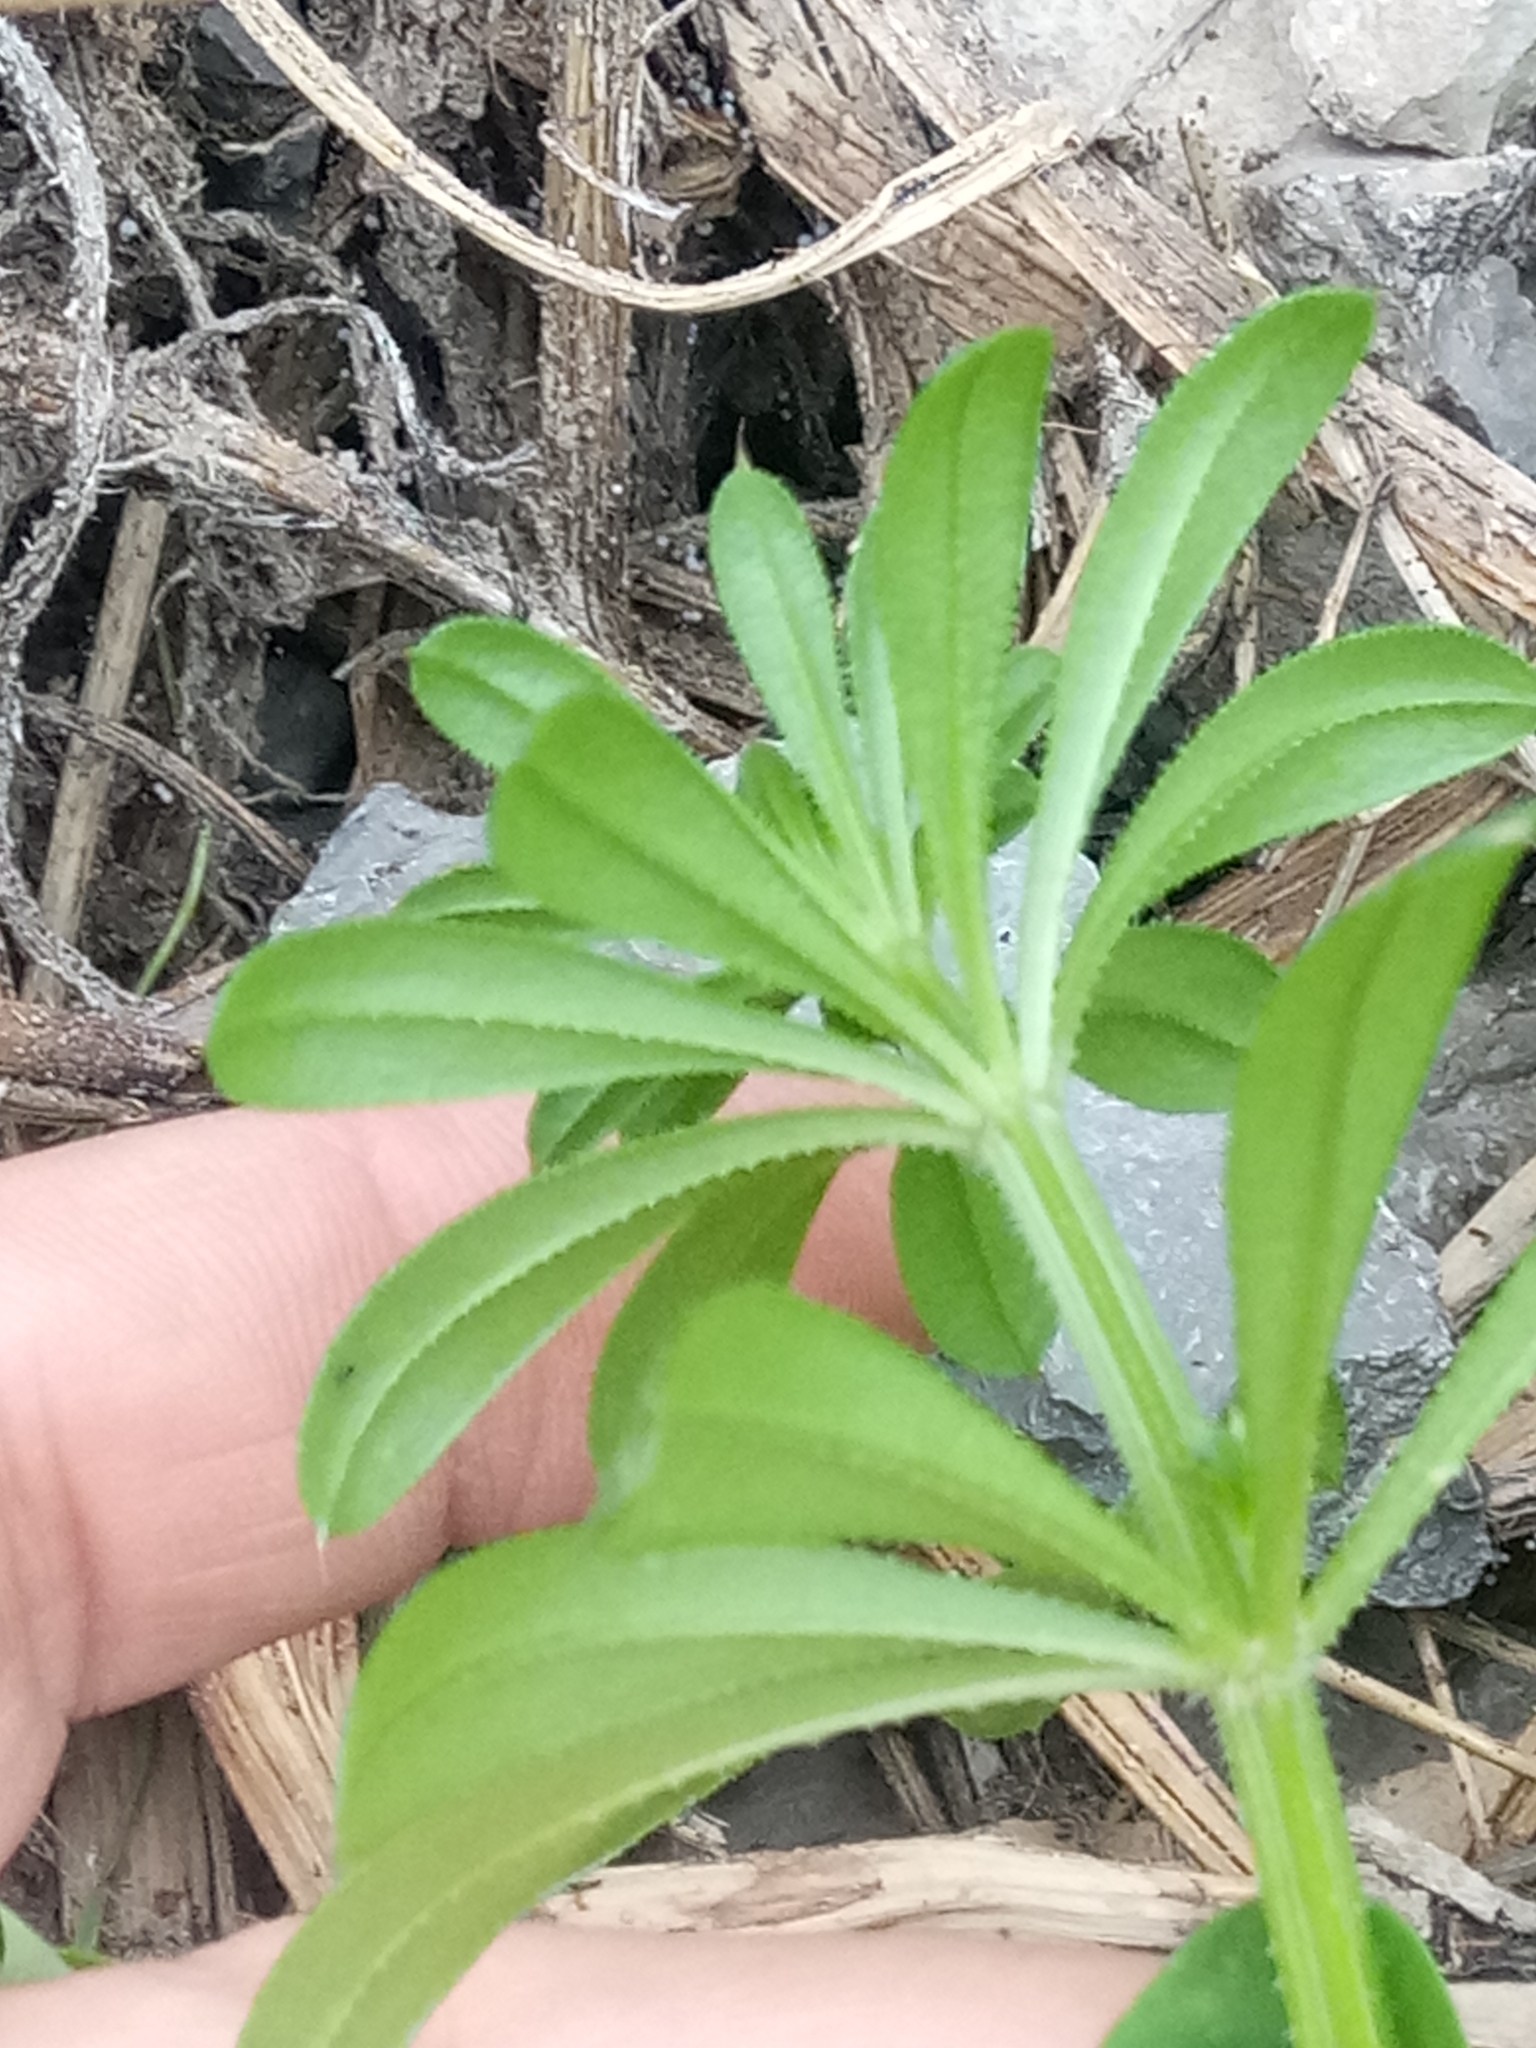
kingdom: Plantae
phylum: Tracheophyta
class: Magnoliopsida
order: Gentianales
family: Rubiaceae
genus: Galium
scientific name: Galium aparine
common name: Cleavers
